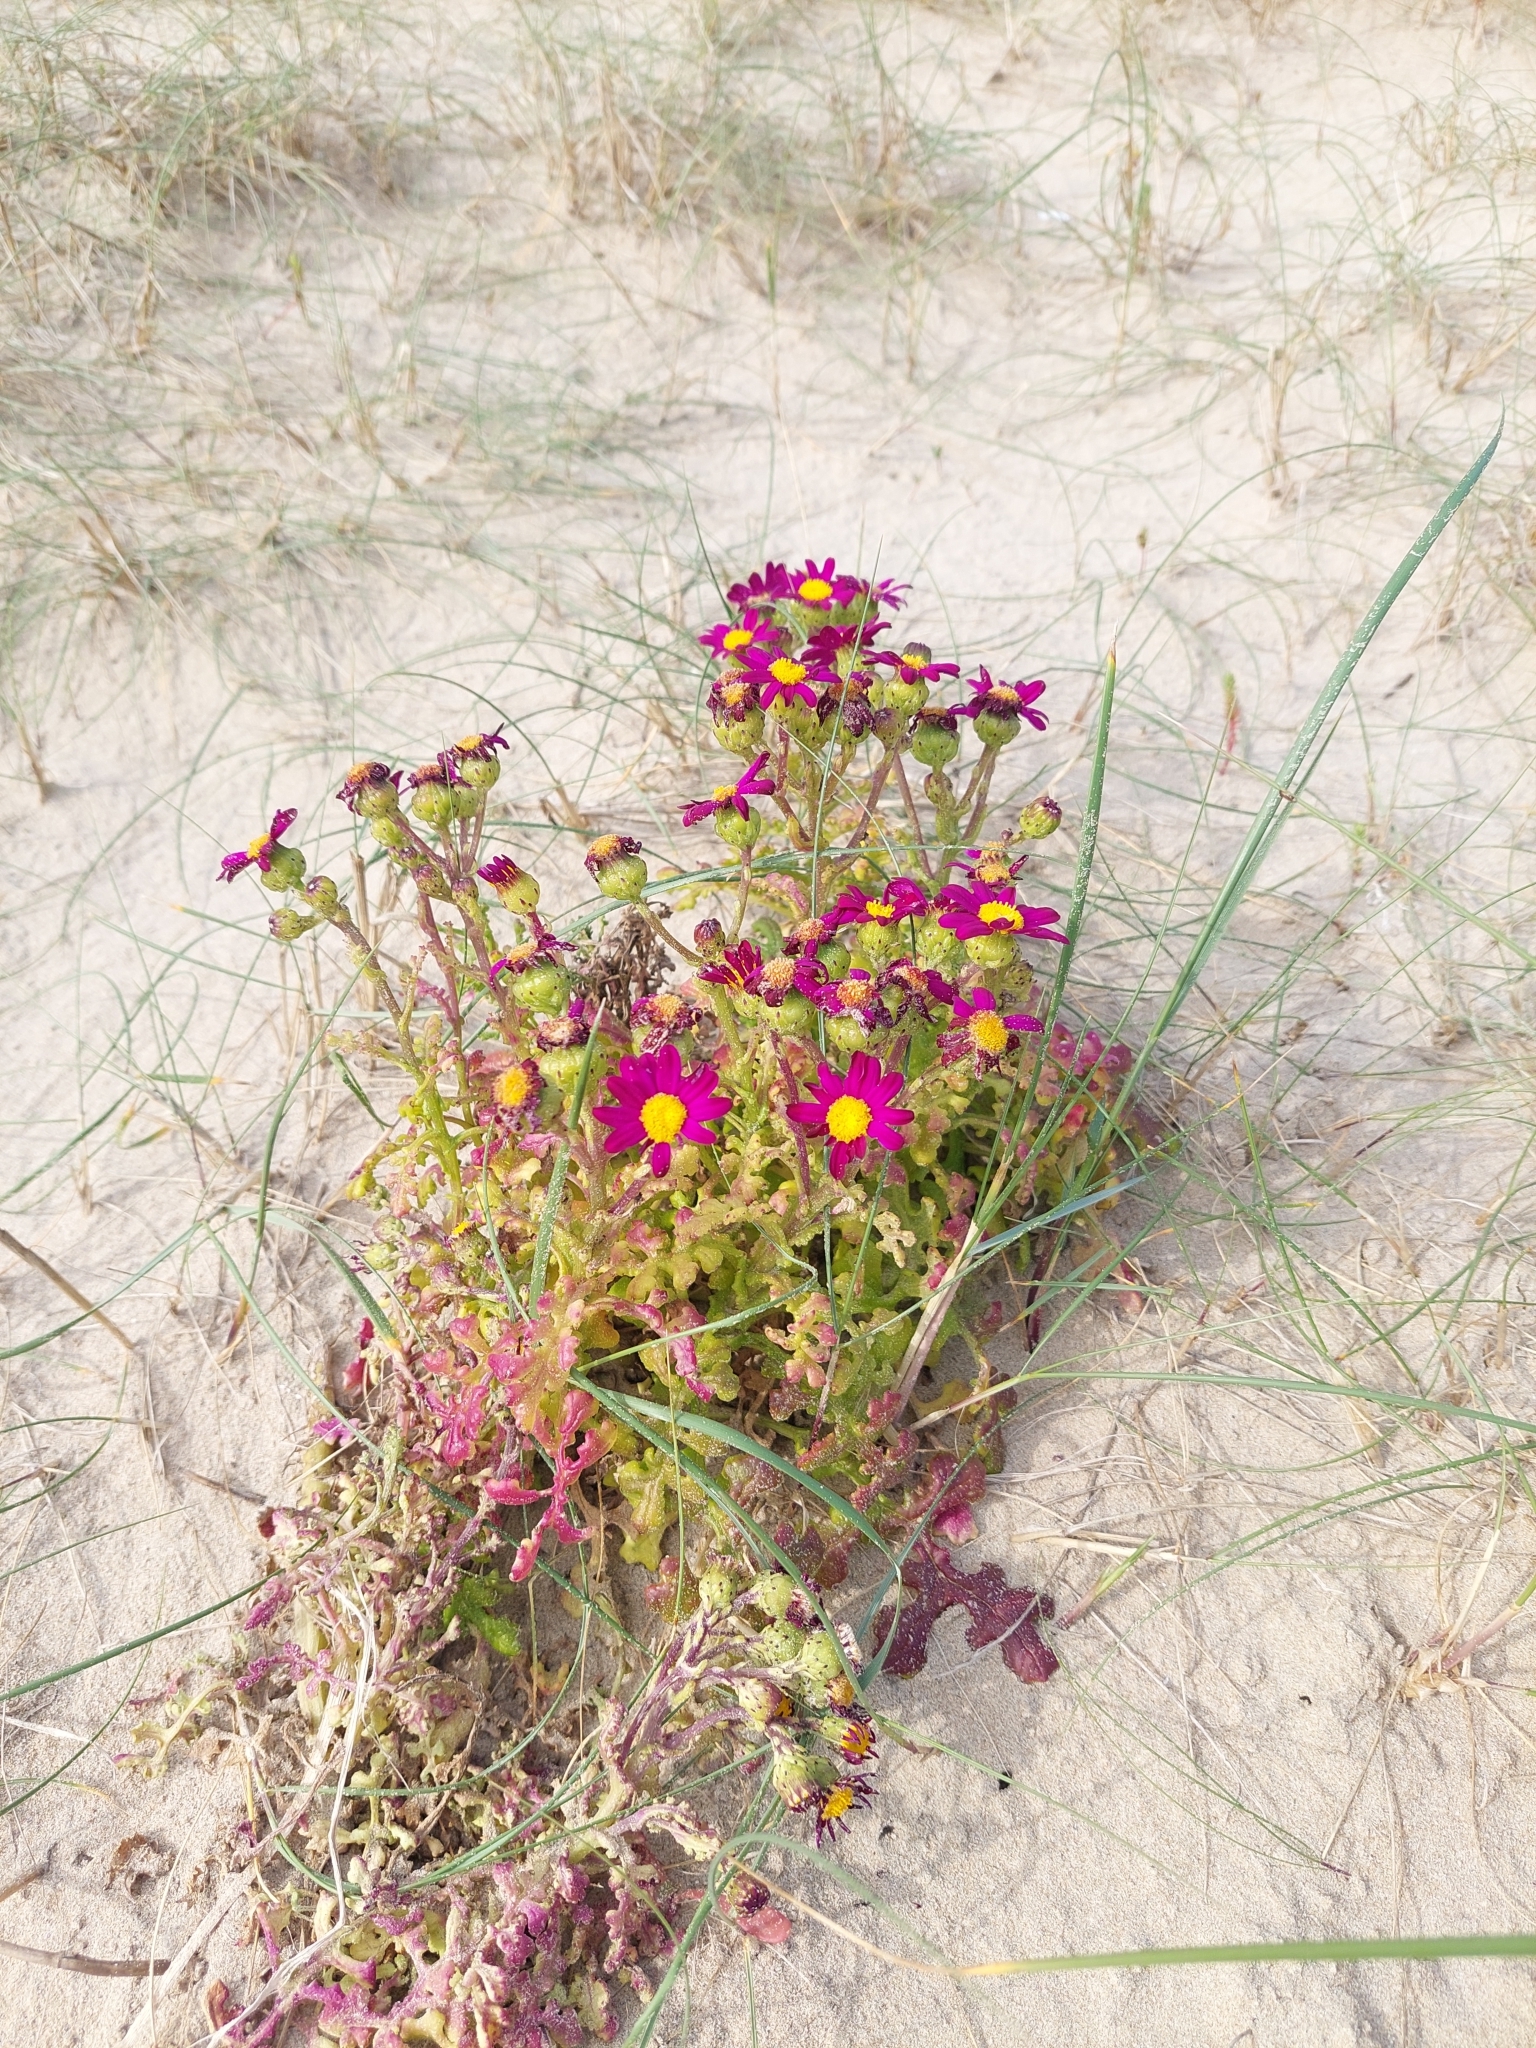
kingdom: Plantae
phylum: Tracheophyta
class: Magnoliopsida
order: Asterales
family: Asteraceae
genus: Senecio
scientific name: Senecio elegans
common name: Purple groundsel
